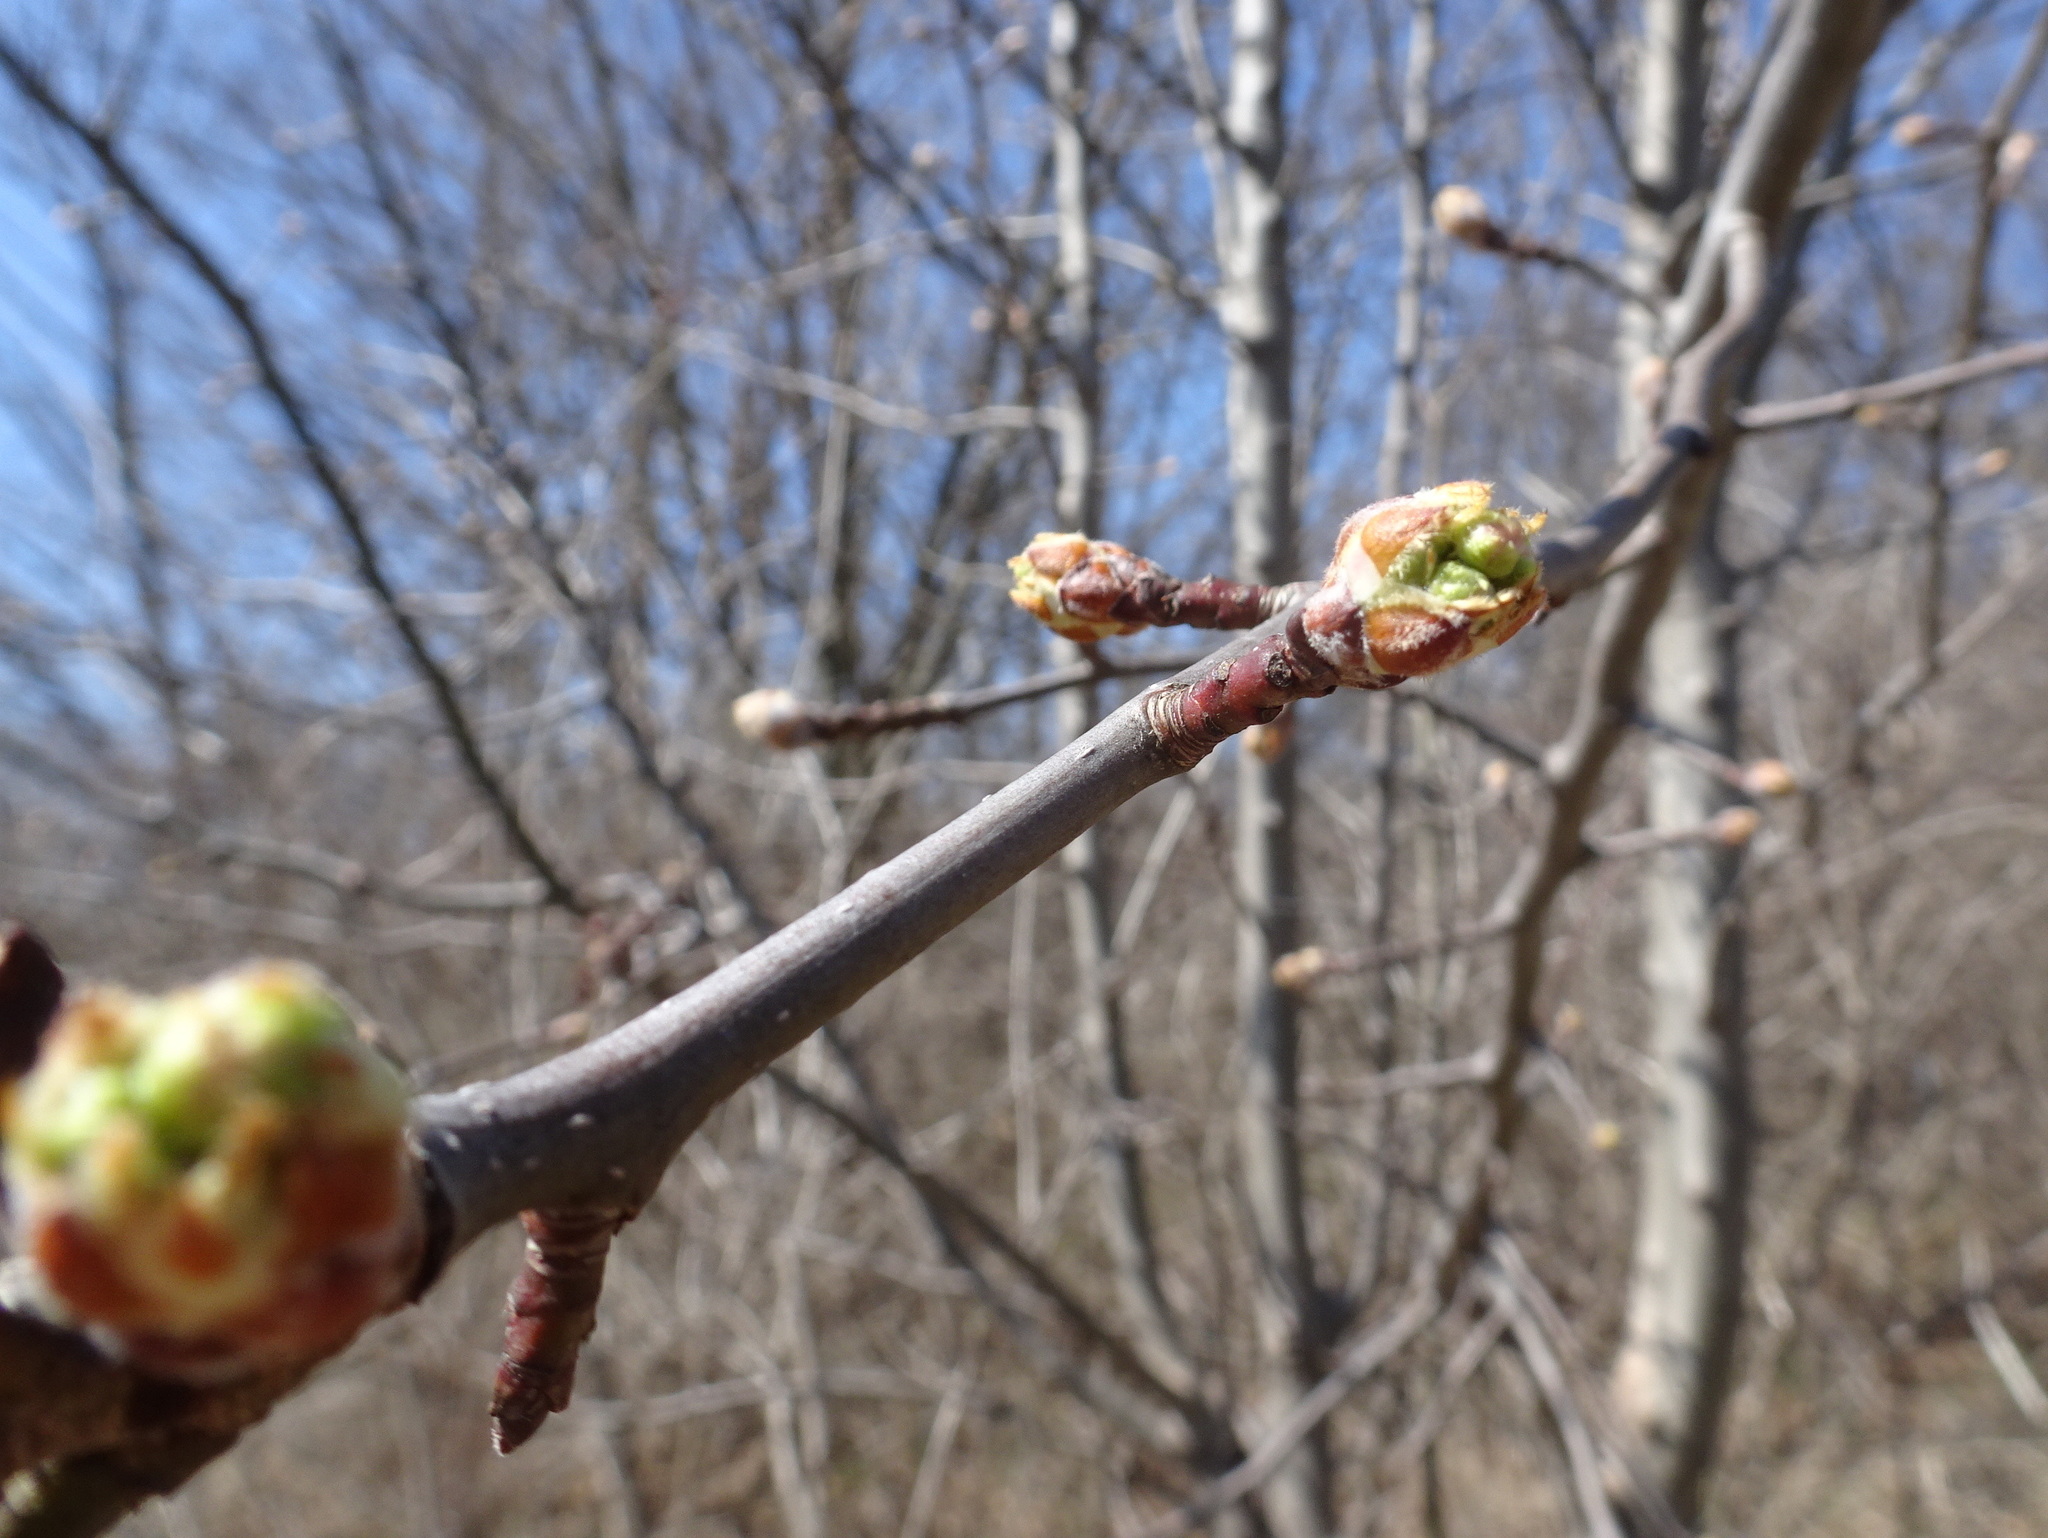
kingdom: Plantae
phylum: Tracheophyta
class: Magnoliopsida
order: Rosales
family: Rosaceae
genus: Pyrus
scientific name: Pyrus calleryana
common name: Callery pear
